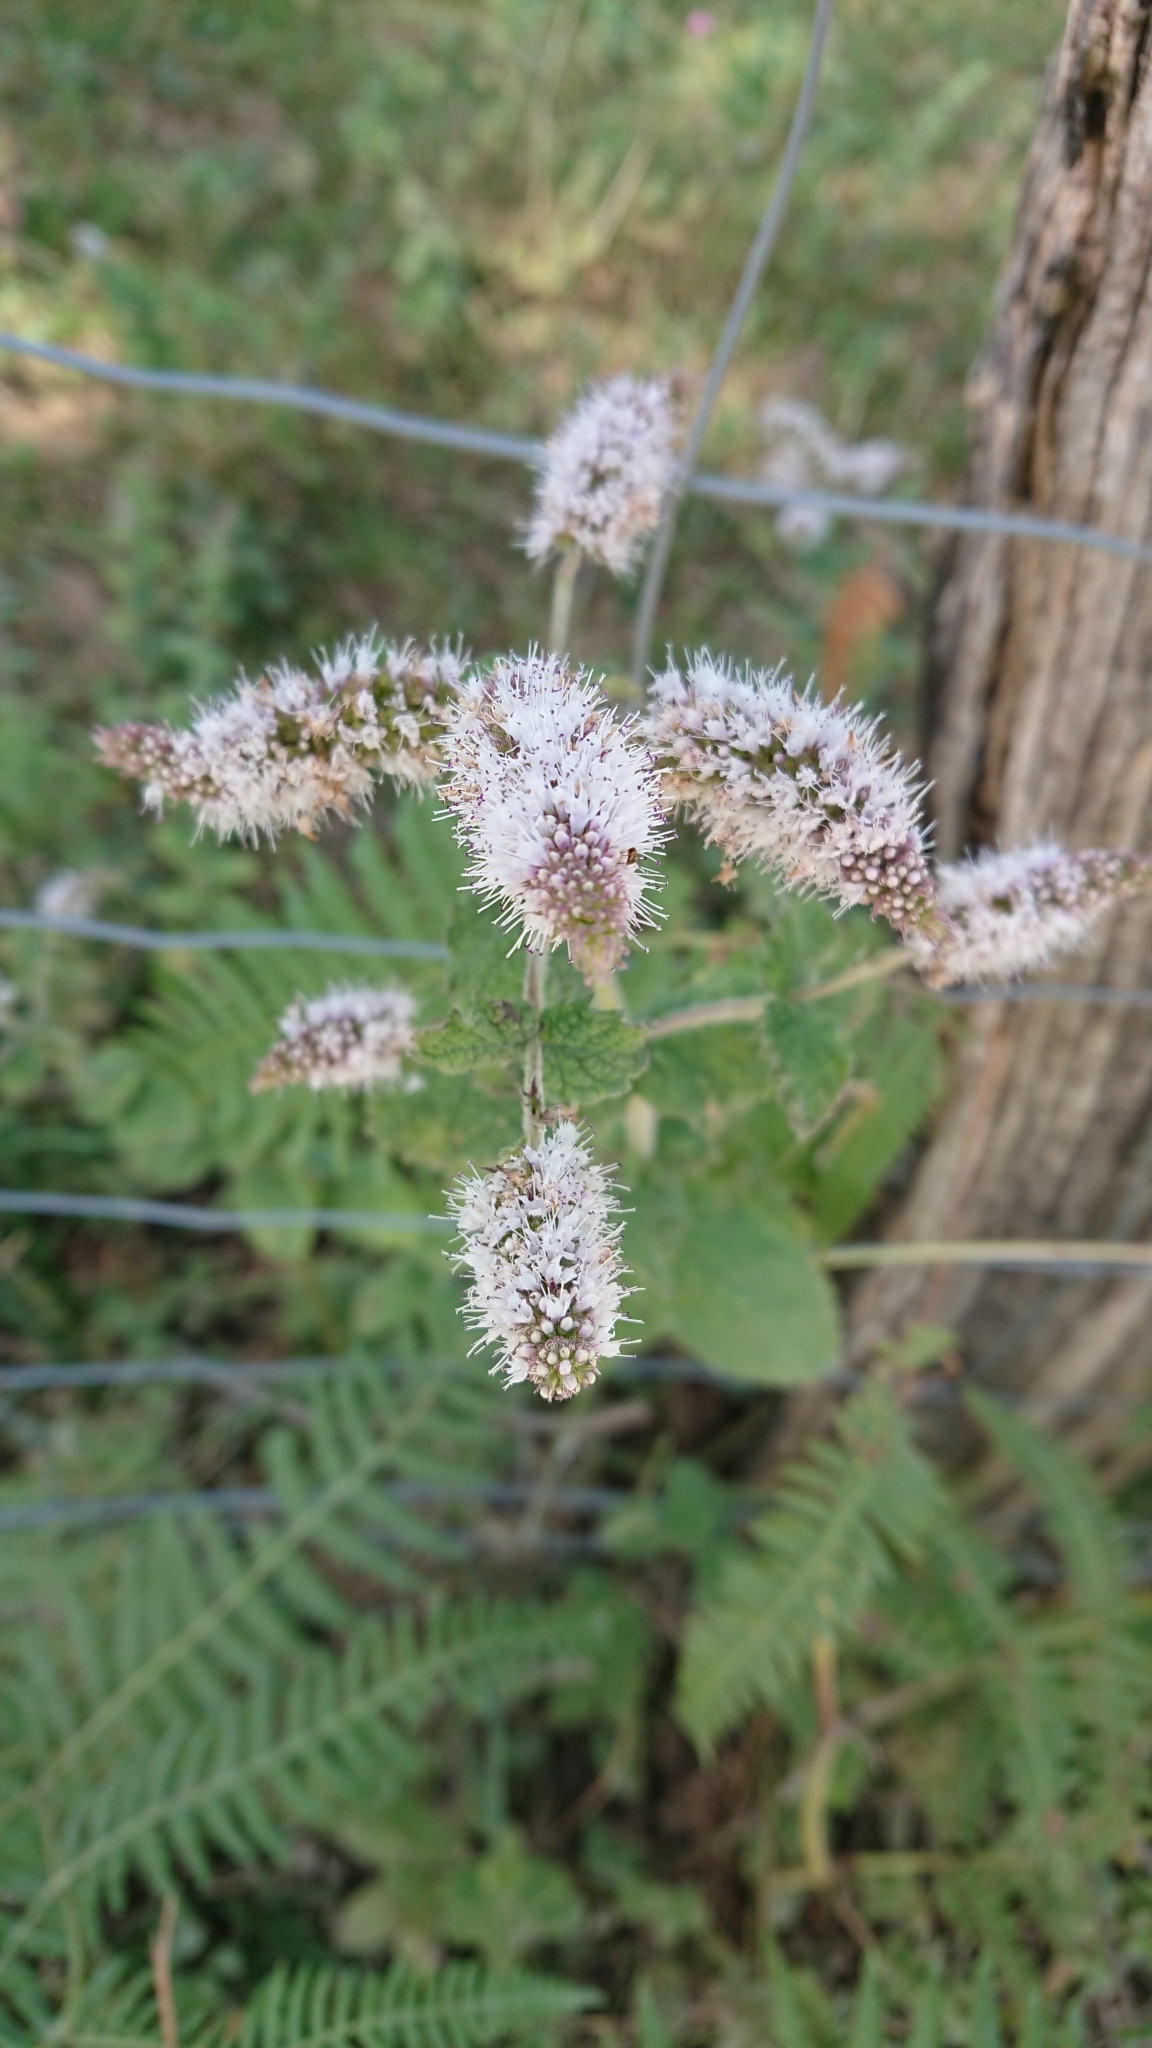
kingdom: Plantae
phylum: Tracheophyta
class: Magnoliopsida
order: Lamiales
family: Lamiaceae
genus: Mentha
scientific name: Mentha suaveolens
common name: Apple mint
